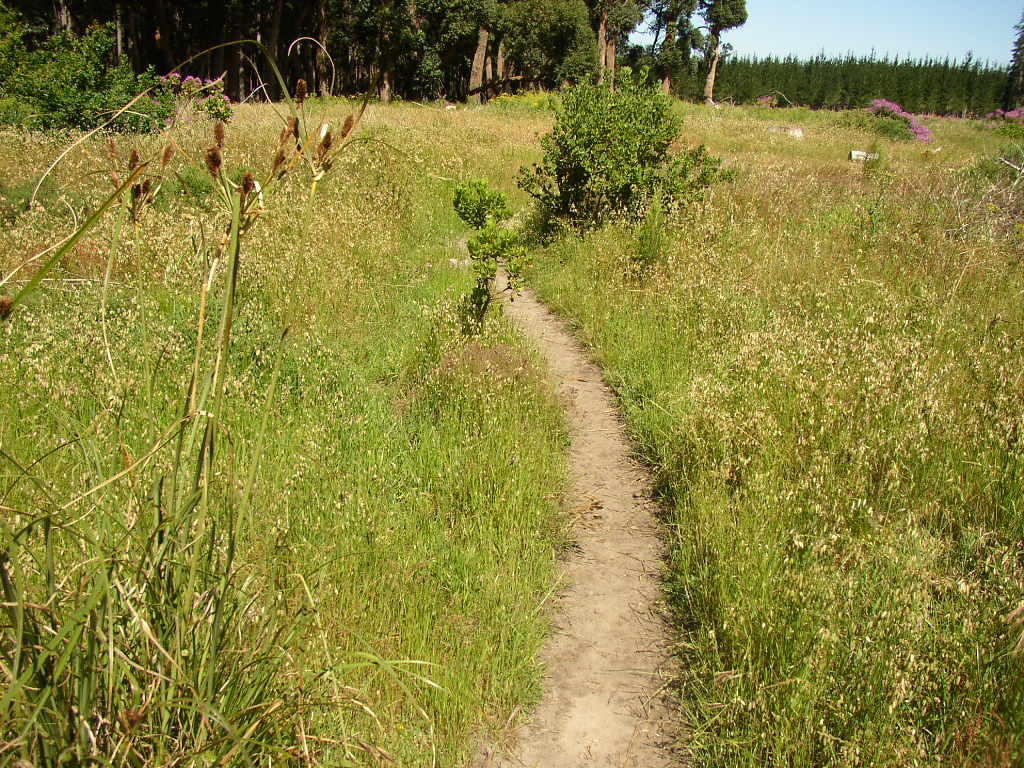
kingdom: Plantae
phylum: Tracheophyta
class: Liliopsida
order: Poales
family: Poaceae
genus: Briza
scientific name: Briza maxima
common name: Big quakinggrass
